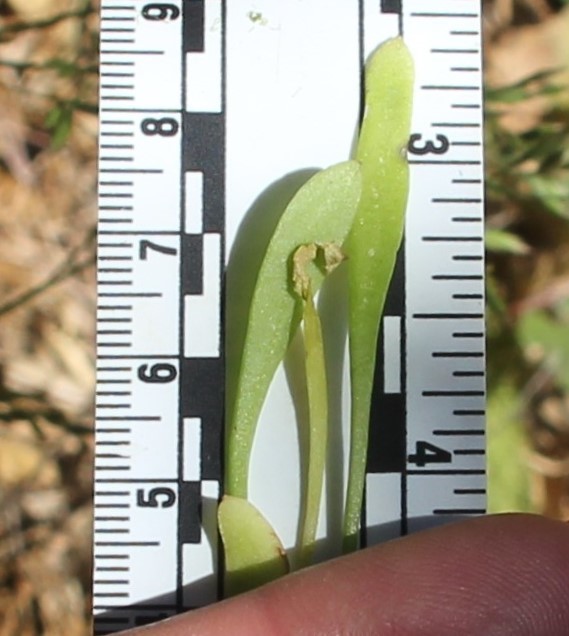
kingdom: Plantae
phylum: Tracheophyta
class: Magnoliopsida
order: Caryophyllales
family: Montiaceae
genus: Claytonia
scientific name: Claytonia parviflora
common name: Indian-lettuce
